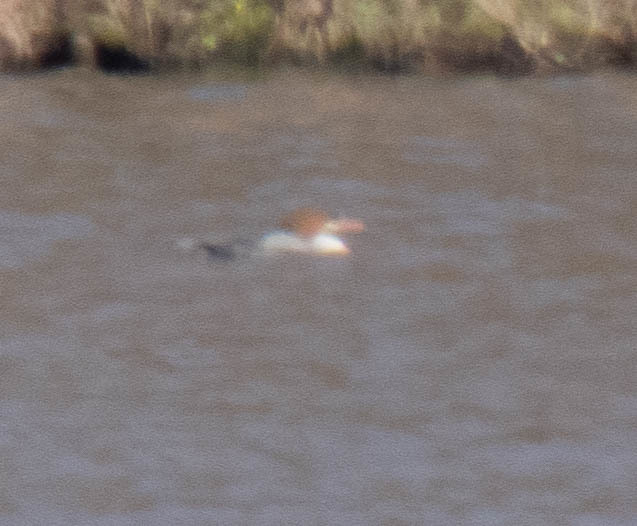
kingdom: Animalia
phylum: Chordata
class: Aves
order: Anseriformes
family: Anatidae
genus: Mergus
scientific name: Mergus merganser
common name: Common merganser
